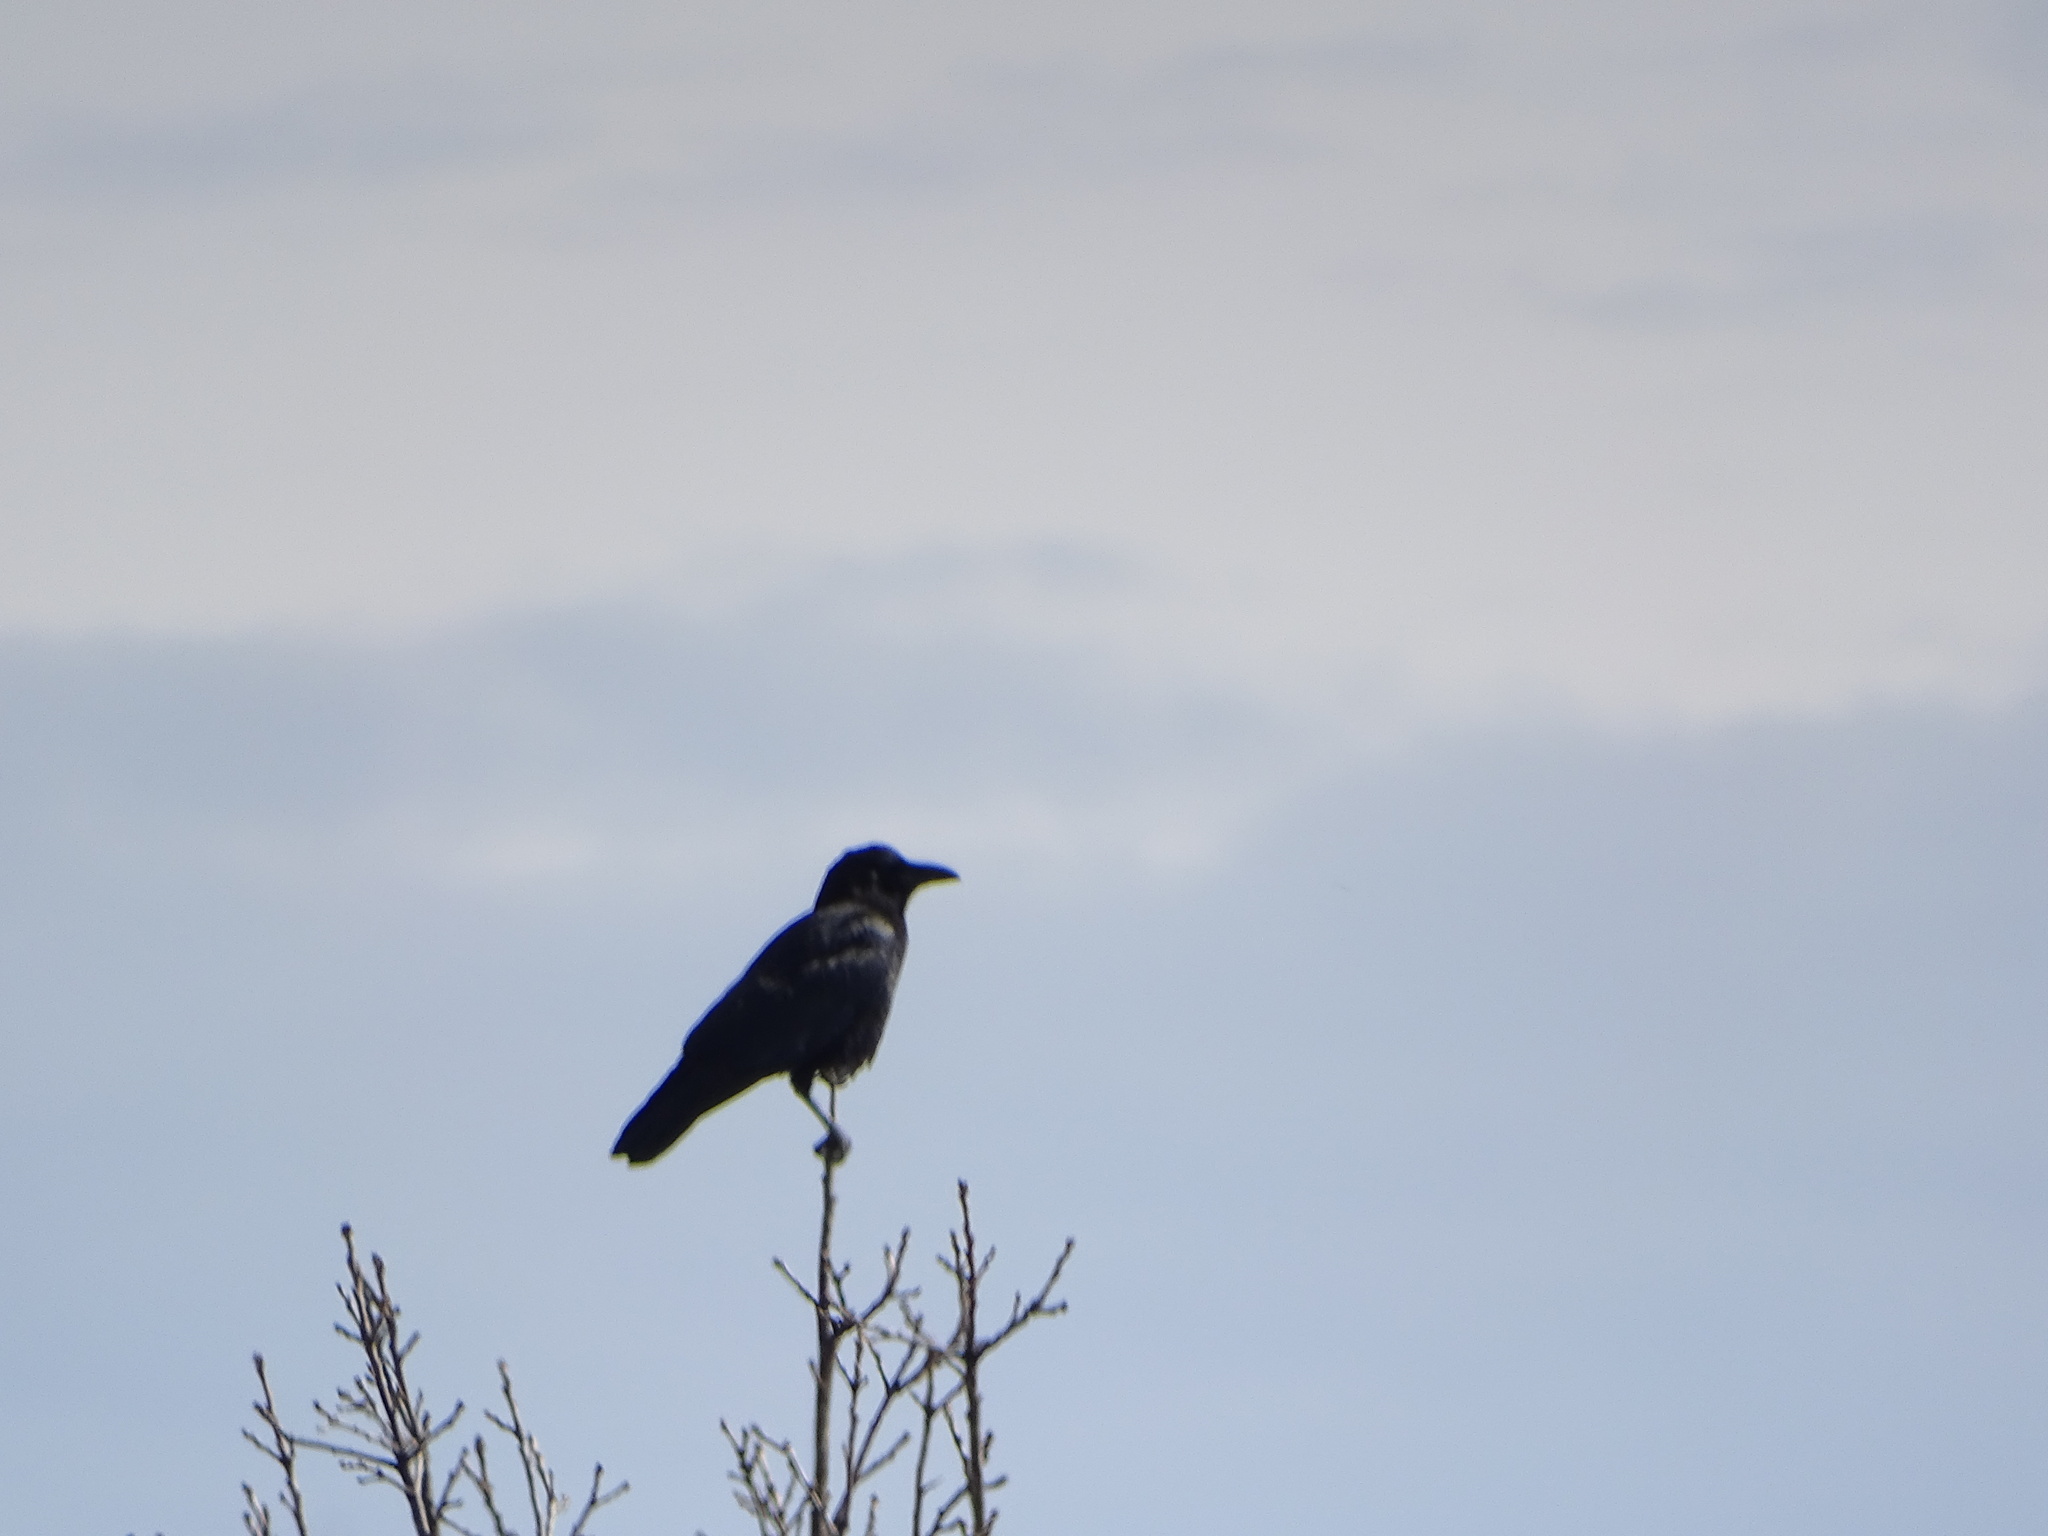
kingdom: Animalia
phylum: Chordata
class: Aves
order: Passeriformes
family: Corvidae
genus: Corvus
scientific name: Corvus brachyrhynchos
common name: American crow
